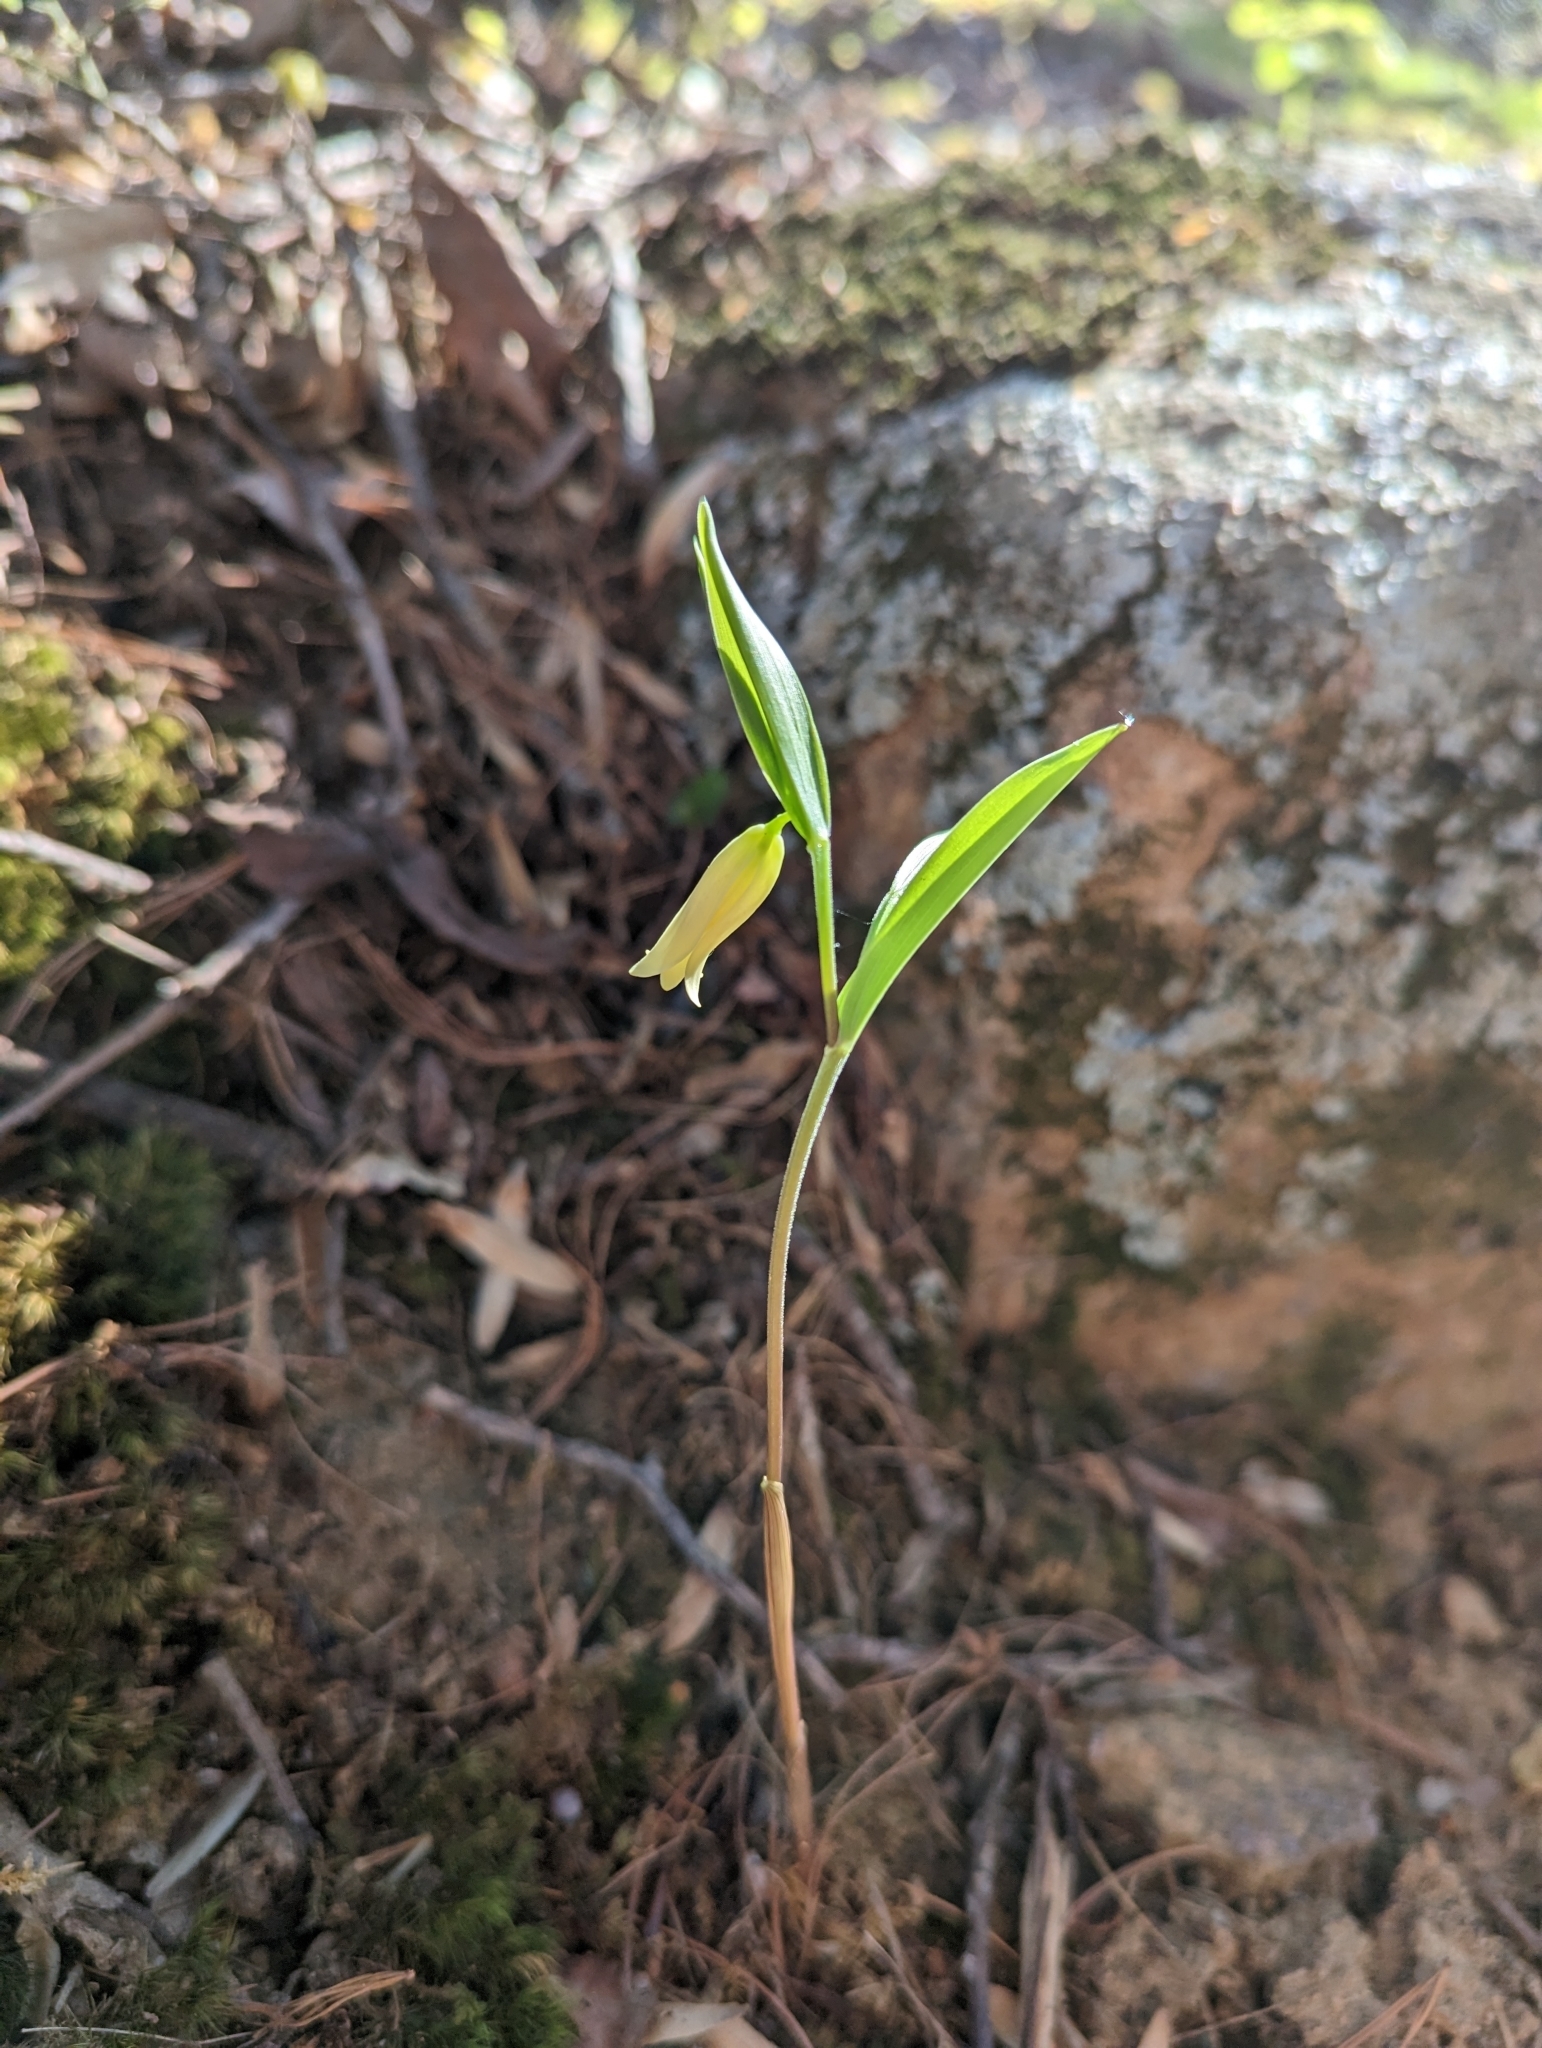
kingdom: Plantae
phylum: Tracheophyta
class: Liliopsida
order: Liliales
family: Colchicaceae
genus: Uvularia
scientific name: Uvularia puberula
